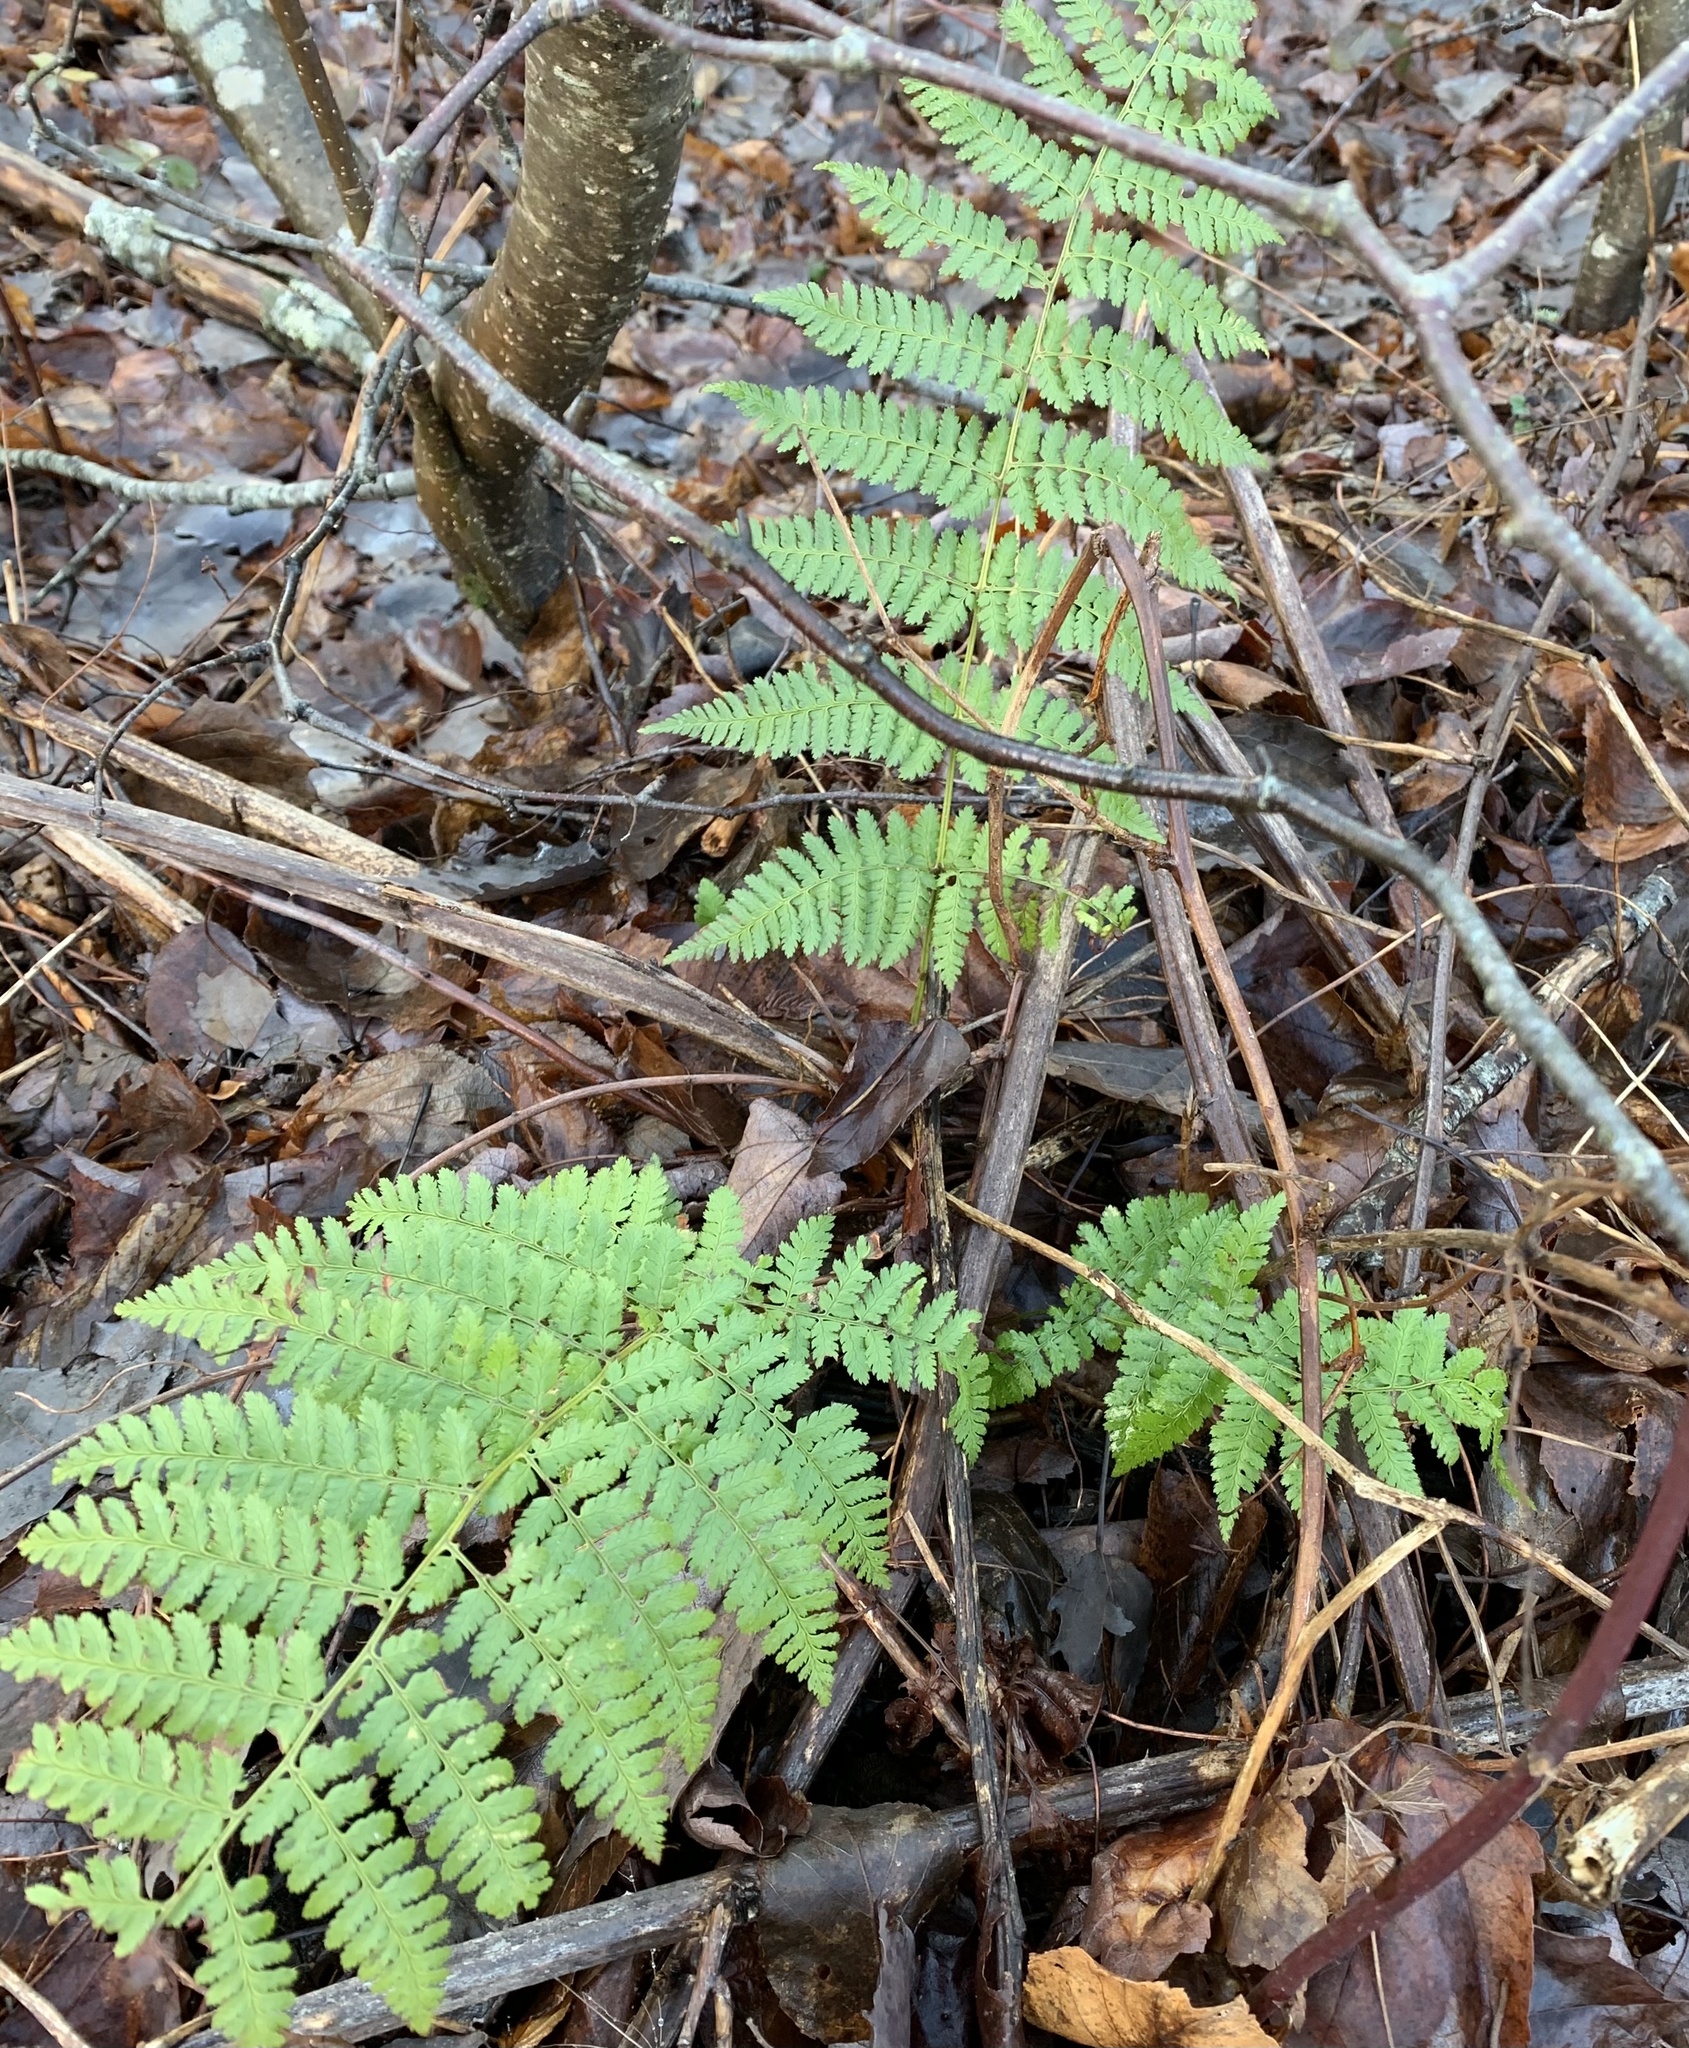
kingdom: Plantae
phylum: Tracheophyta
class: Polypodiopsida
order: Polypodiales
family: Dryopteridaceae
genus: Dryopteris
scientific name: Dryopteris intermedia
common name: Evergreen wood fern
